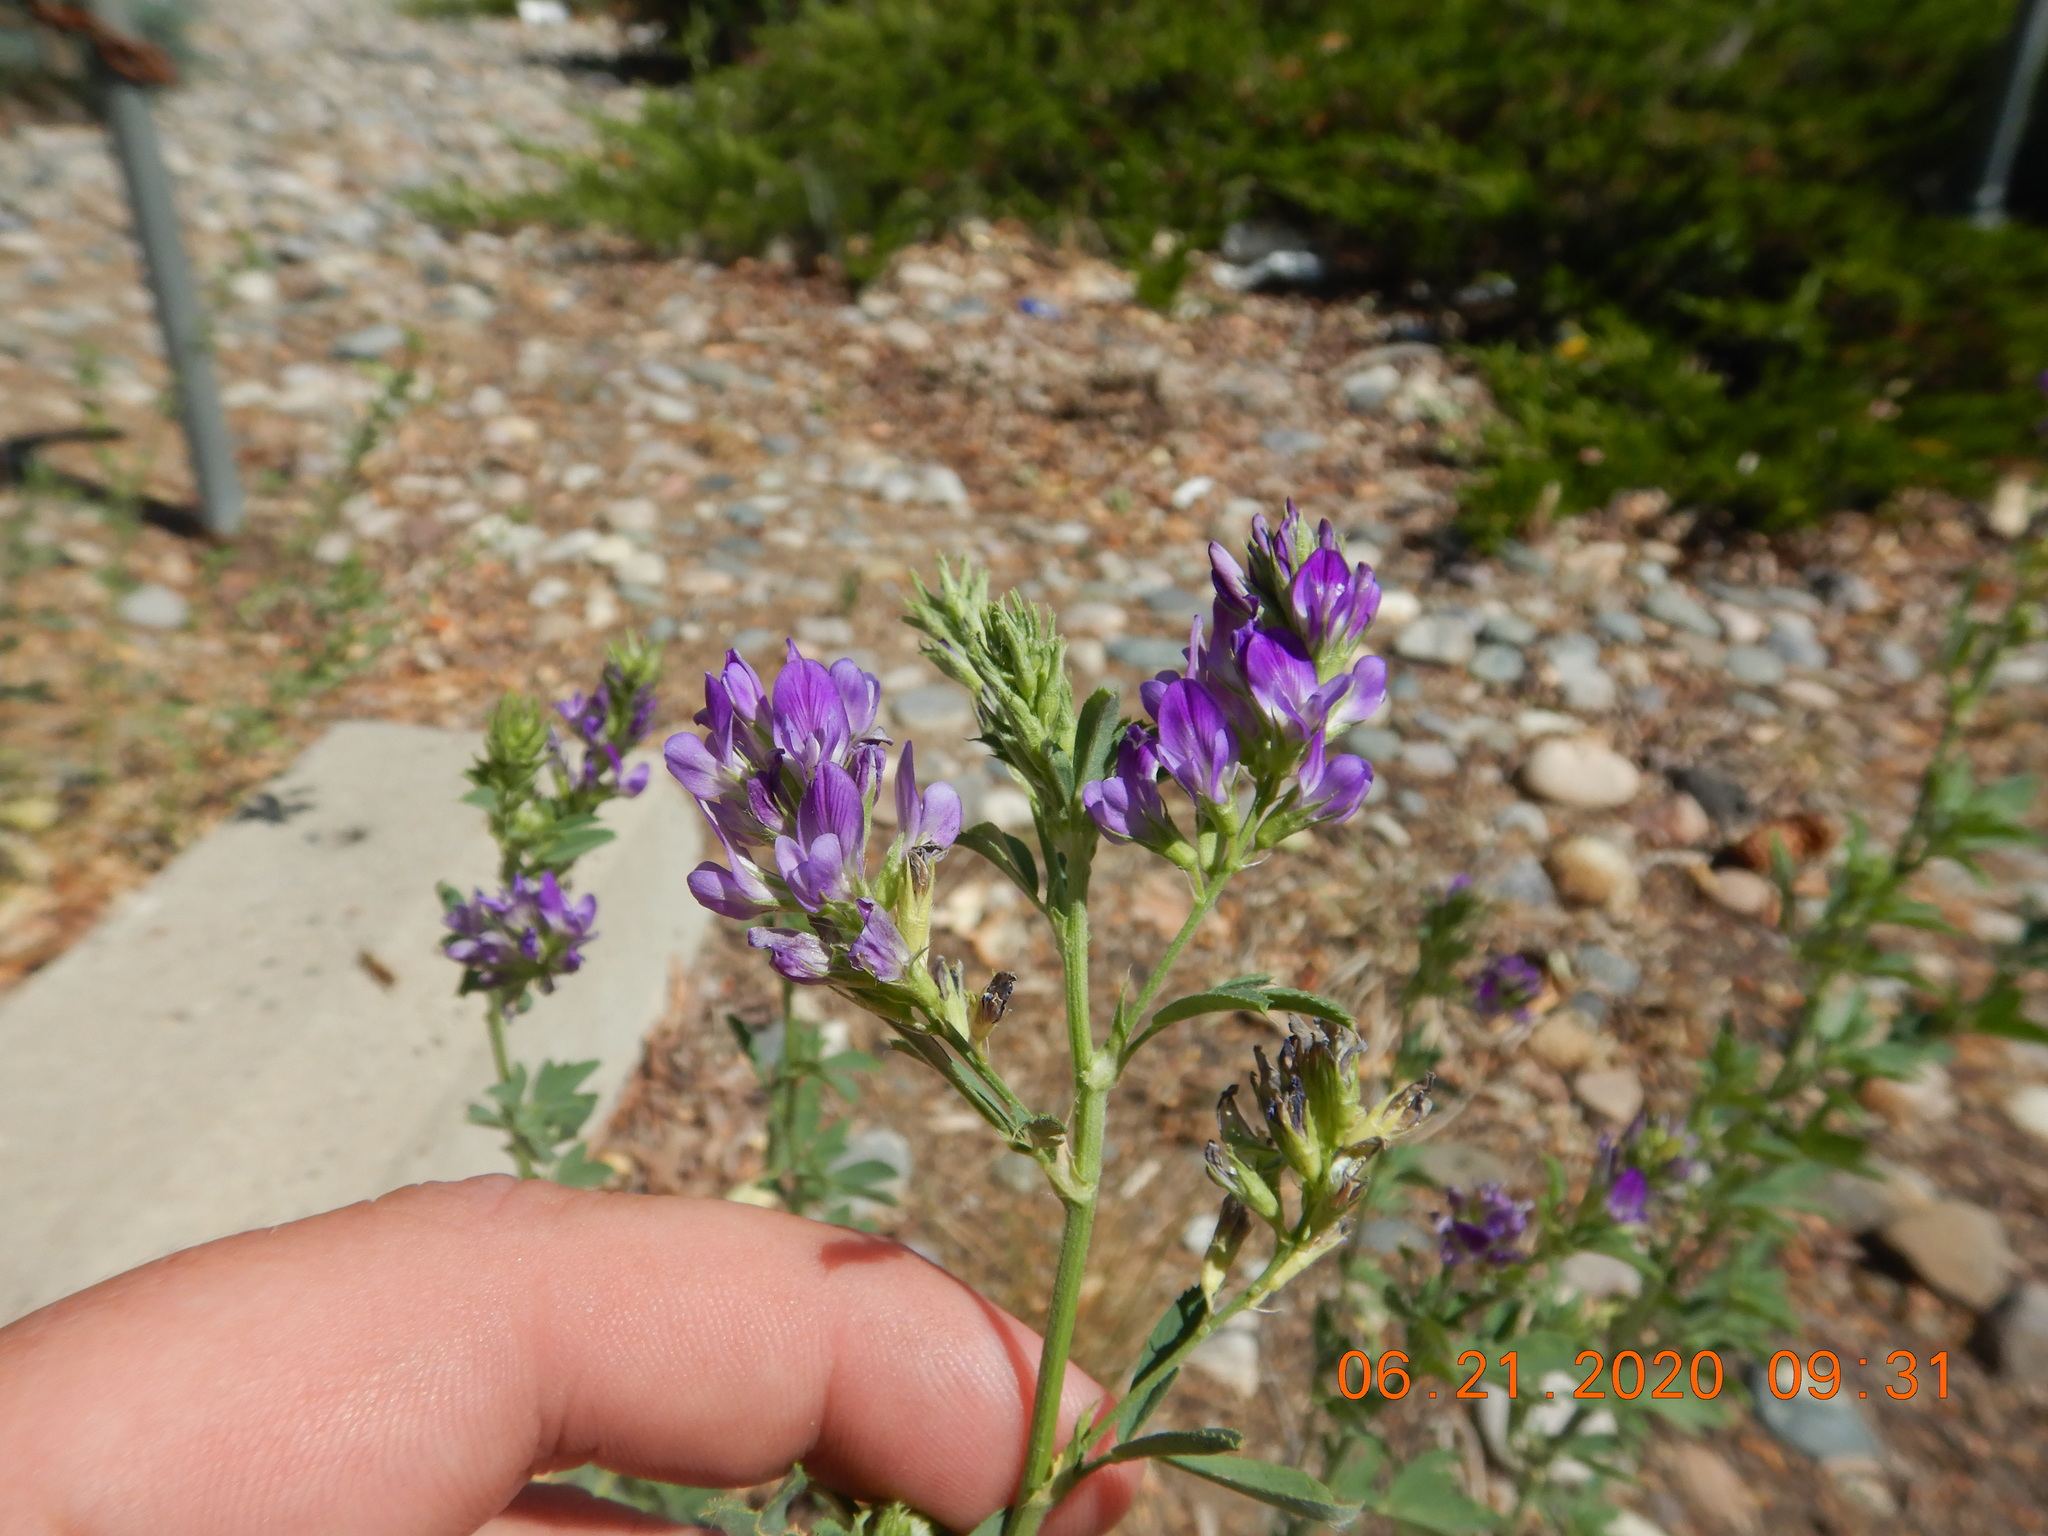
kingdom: Plantae
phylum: Tracheophyta
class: Magnoliopsida
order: Fabales
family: Fabaceae
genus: Medicago
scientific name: Medicago sativa
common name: Alfalfa
